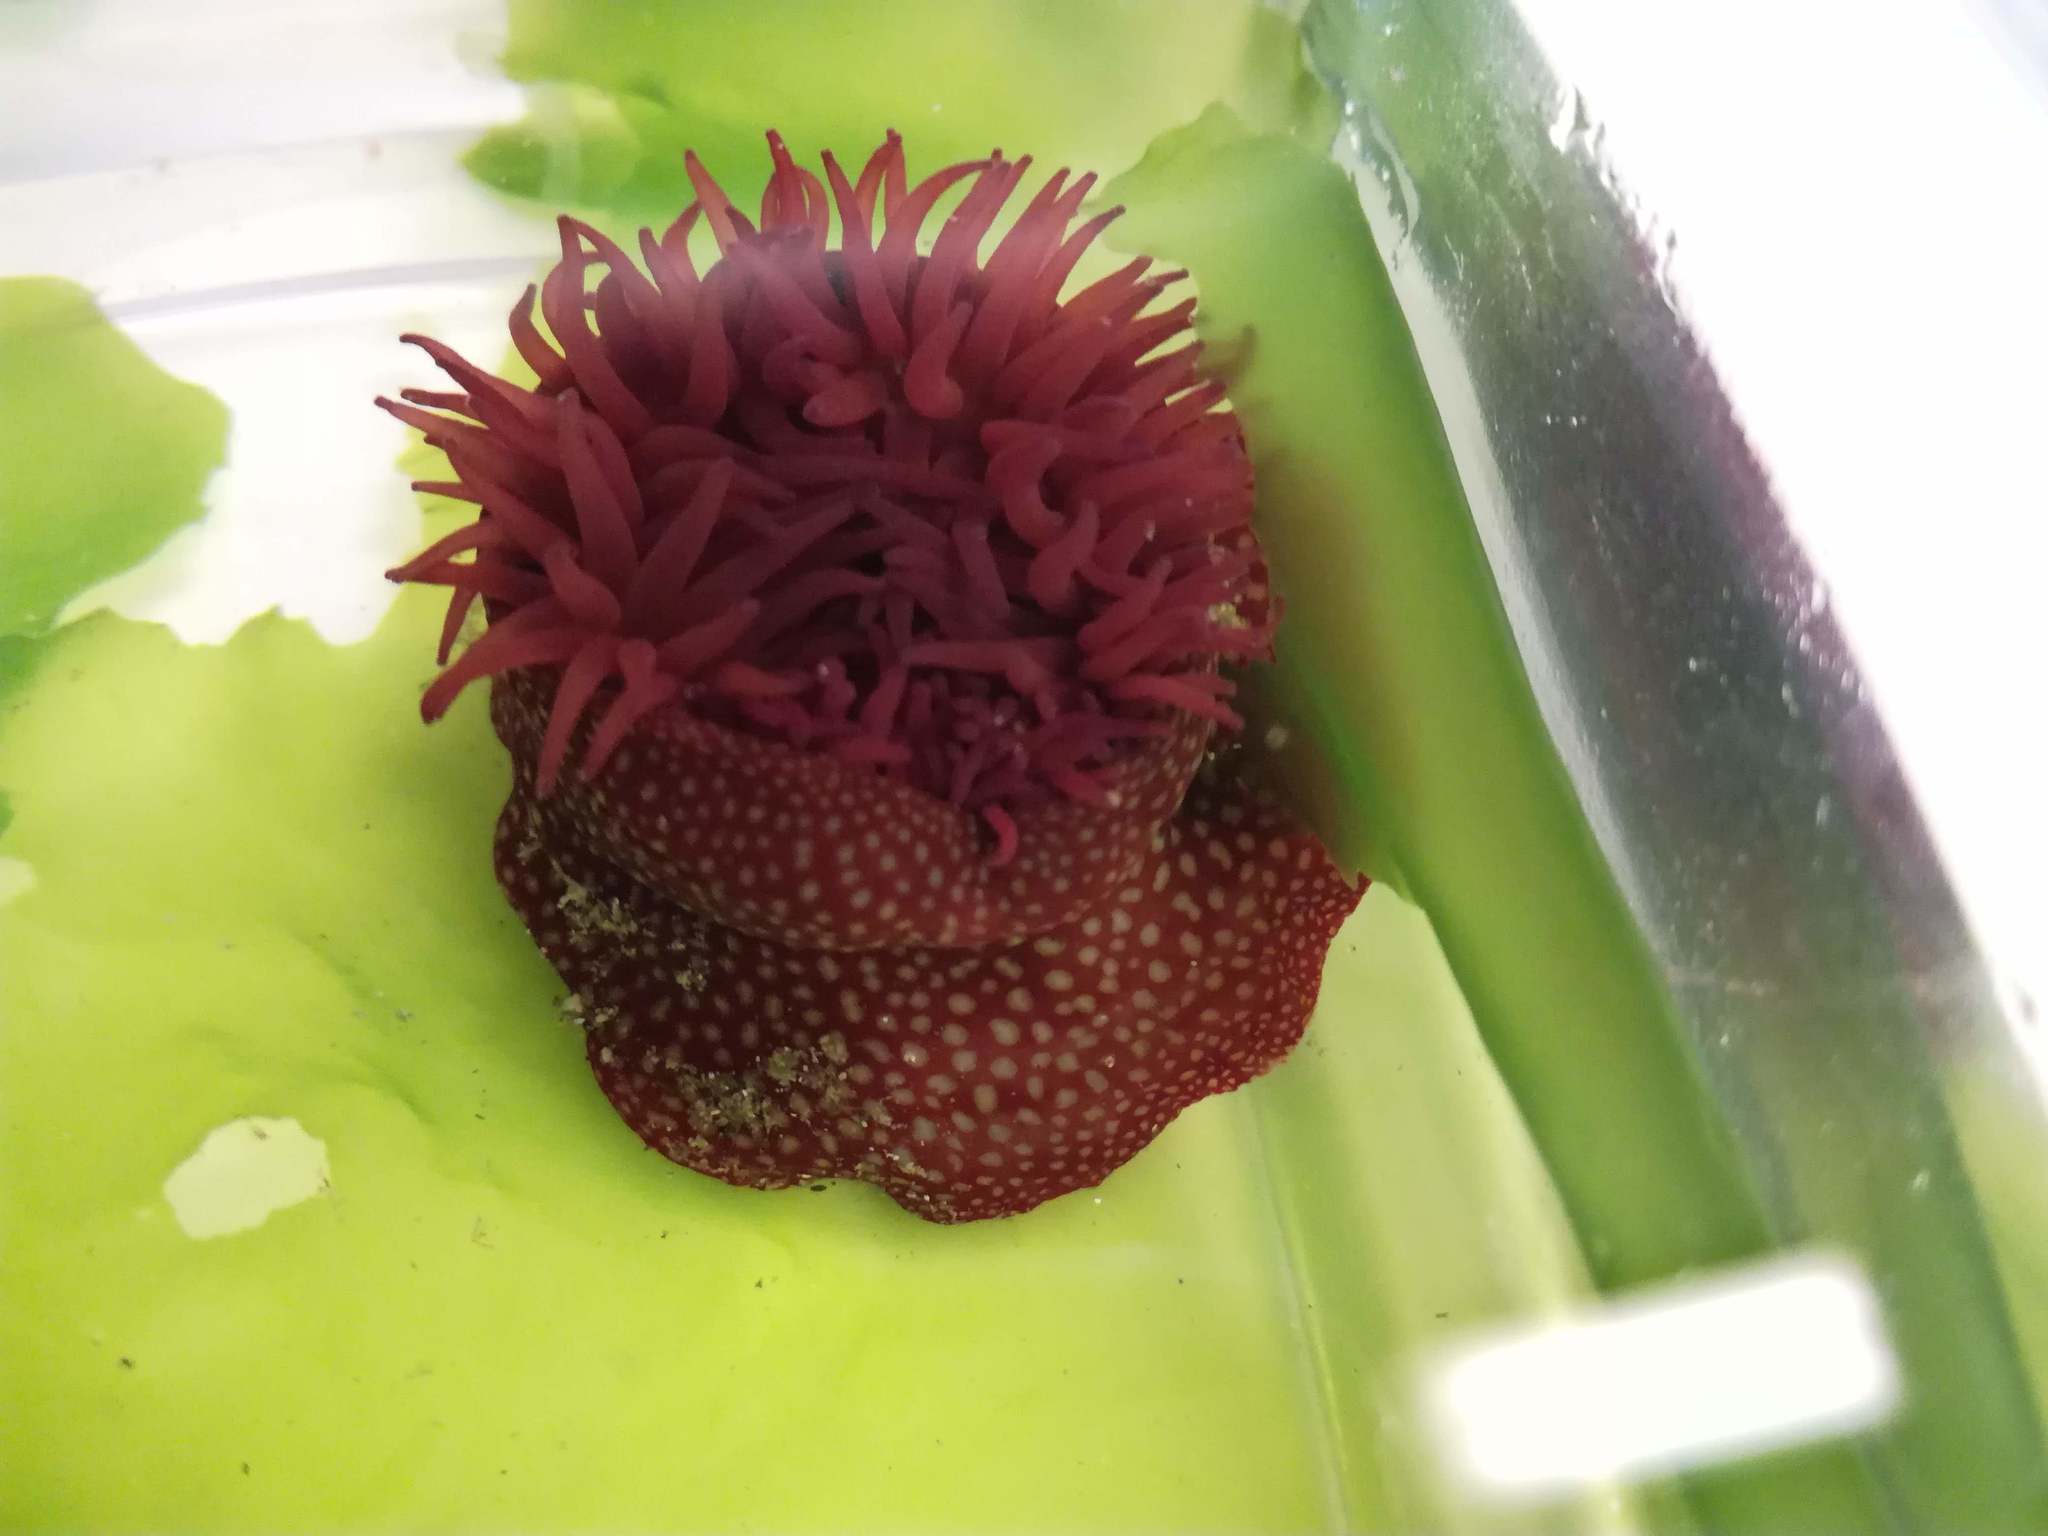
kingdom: Animalia
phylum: Cnidaria
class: Anthozoa
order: Actiniaria
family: Actiniidae
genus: Actinia
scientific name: Actinia fragacea
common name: Strawberry anemone
